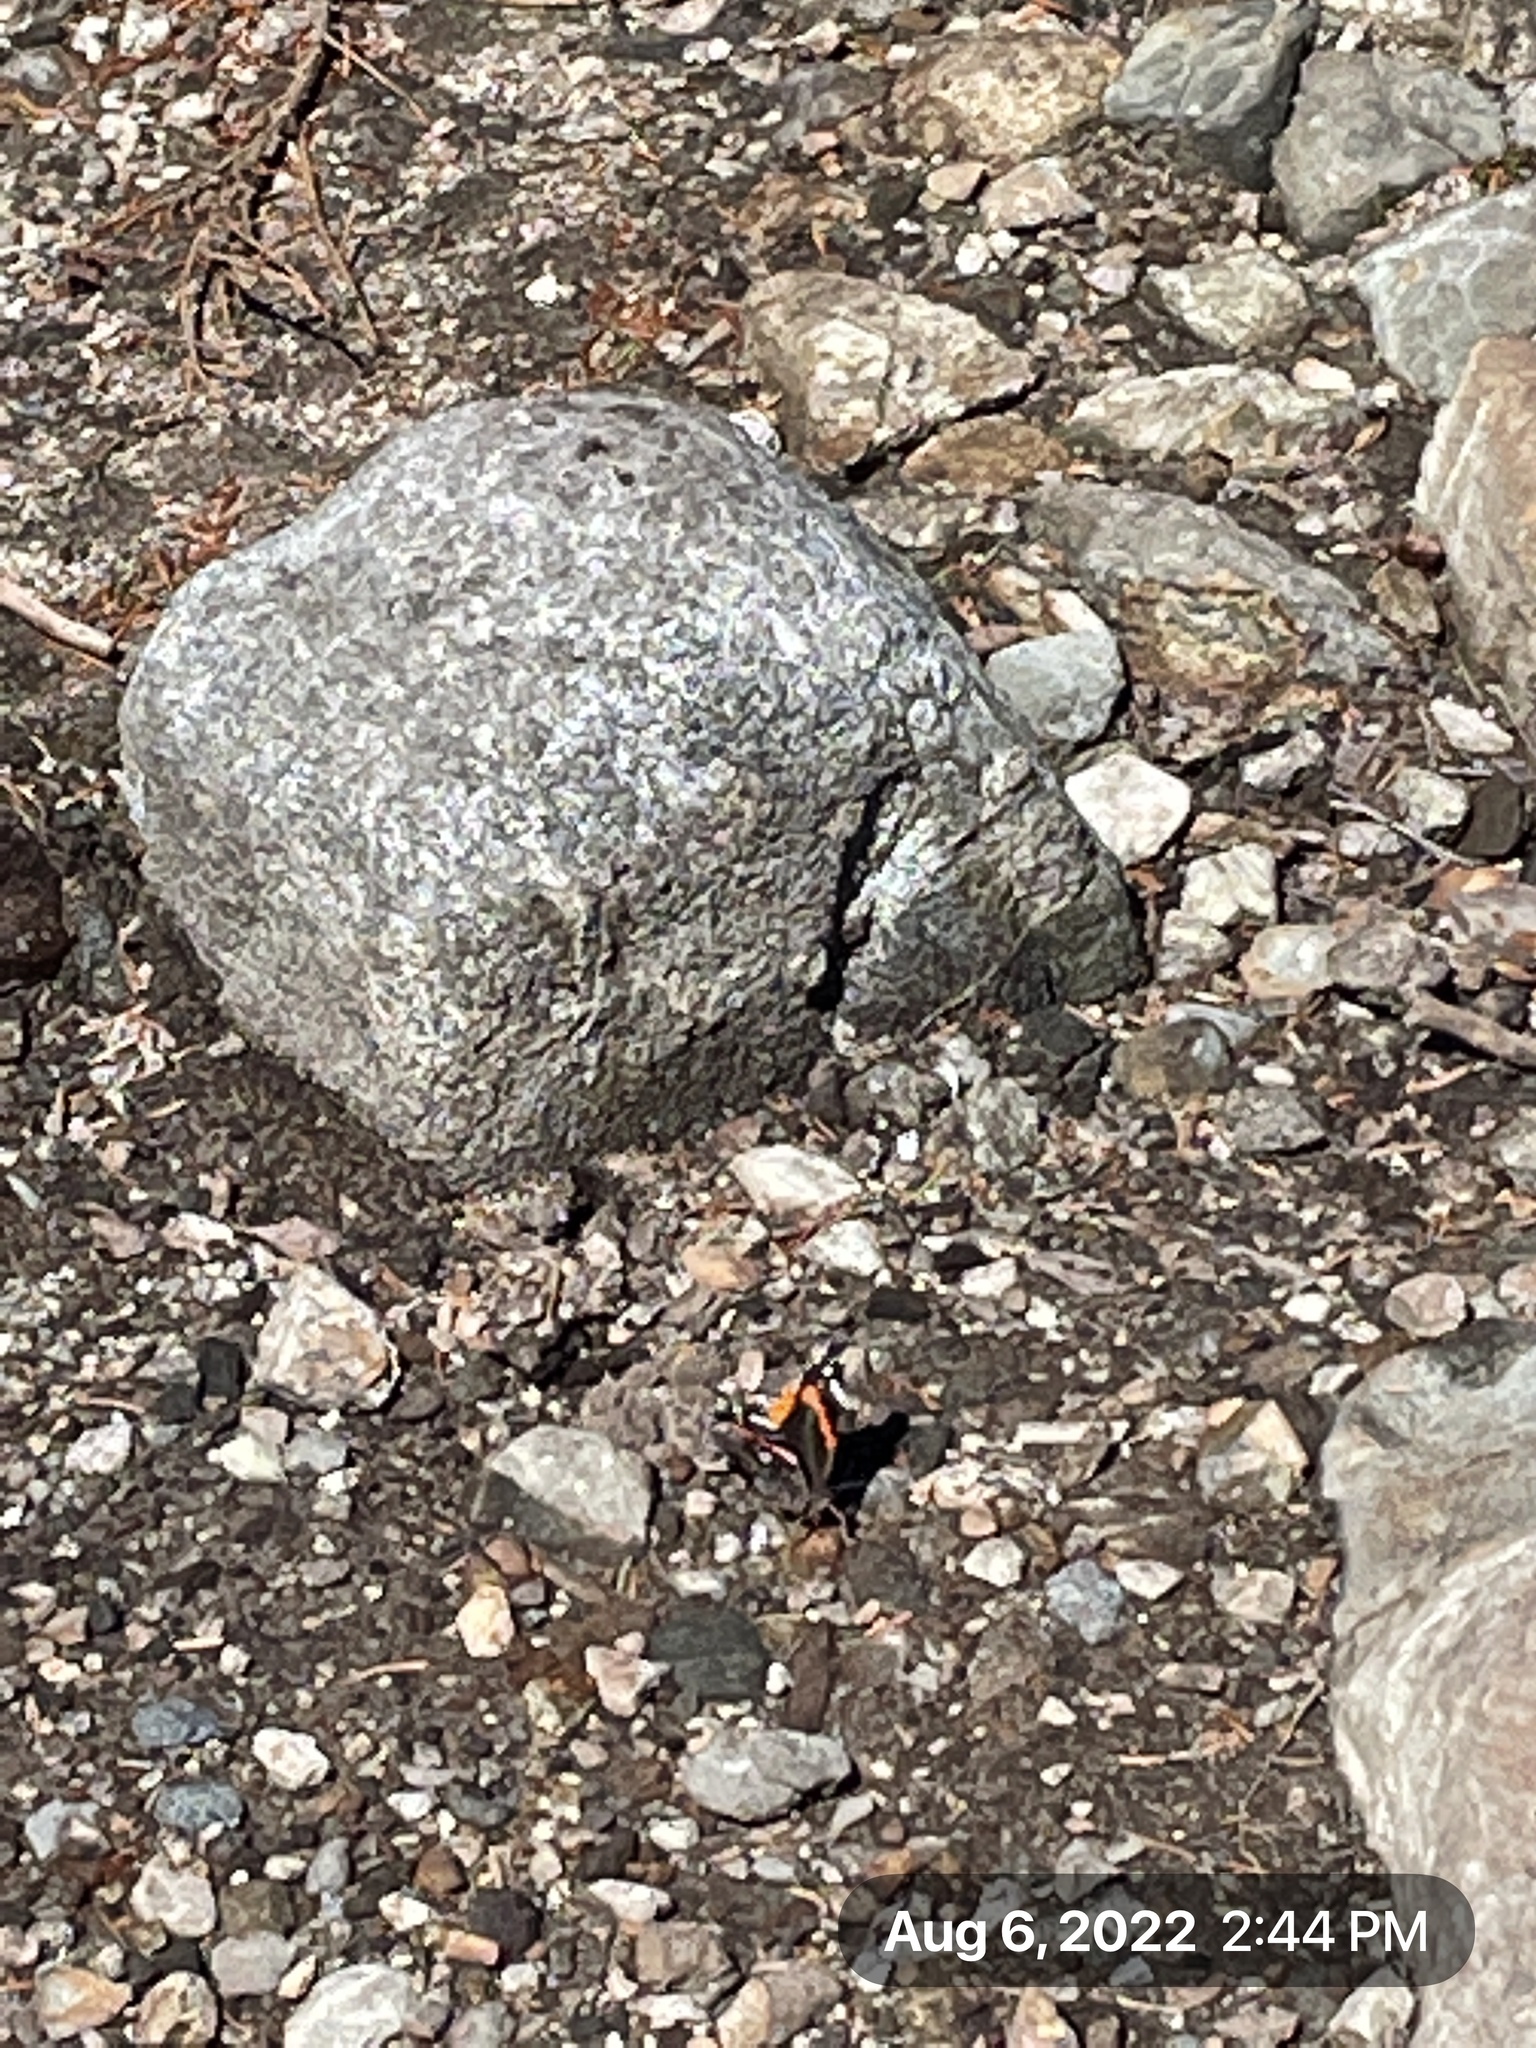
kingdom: Animalia
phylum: Arthropoda
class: Insecta
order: Lepidoptera
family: Nymphalidae
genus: Vanessa
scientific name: Vanessa atalanta
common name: Red admiral
